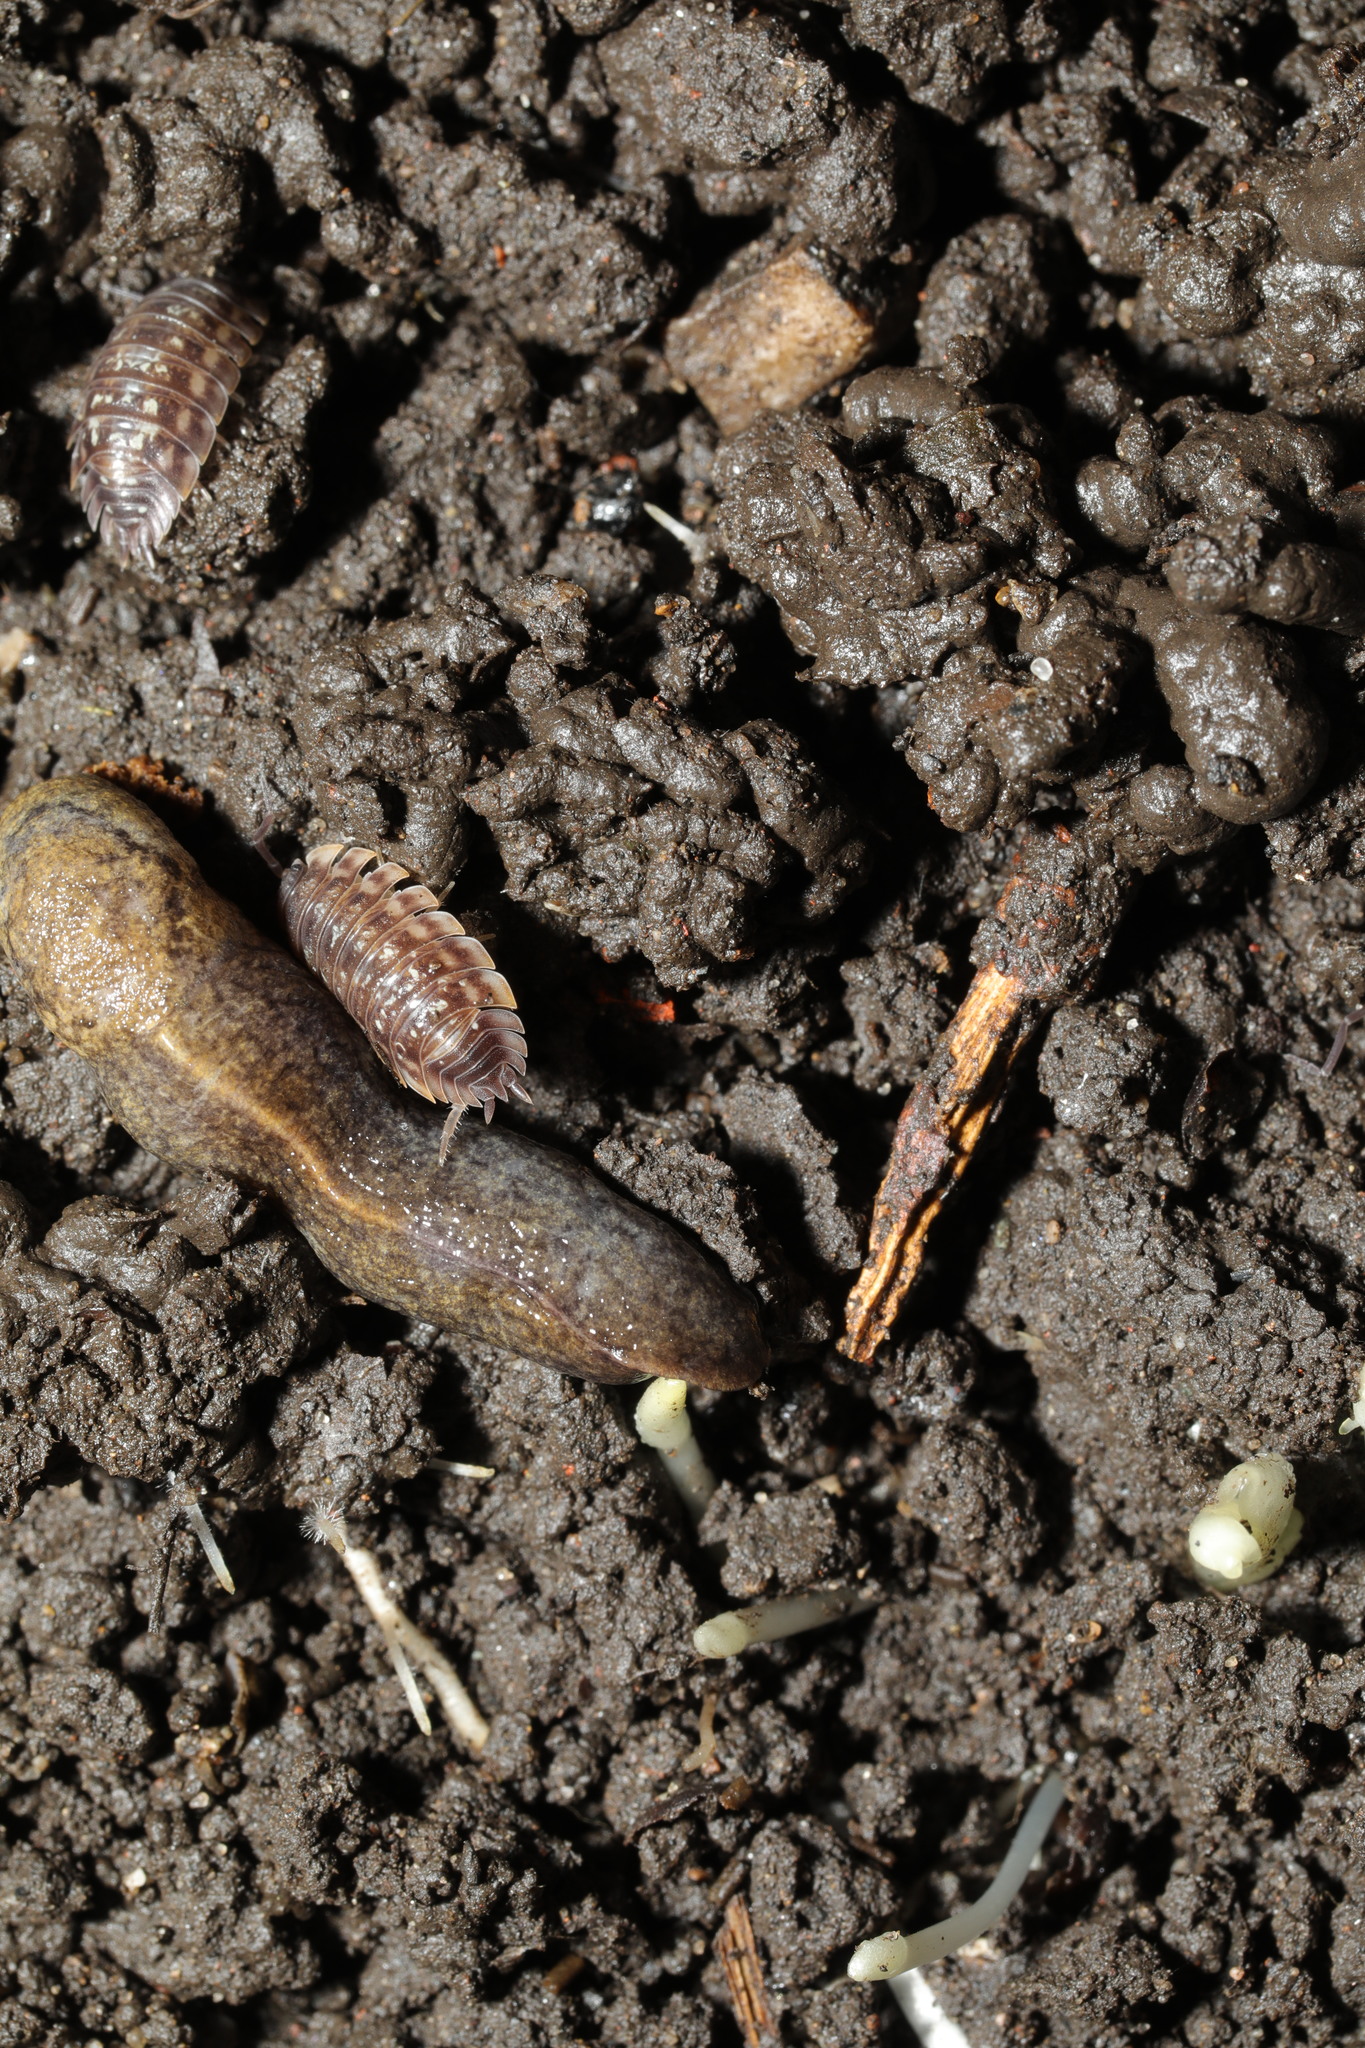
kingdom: Animalia
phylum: Arthropoda
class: Malacostraca
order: Isopoda
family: Oniscidae
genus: Oniscus
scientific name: Oniscus asellus
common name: Common shiny woodlouse
